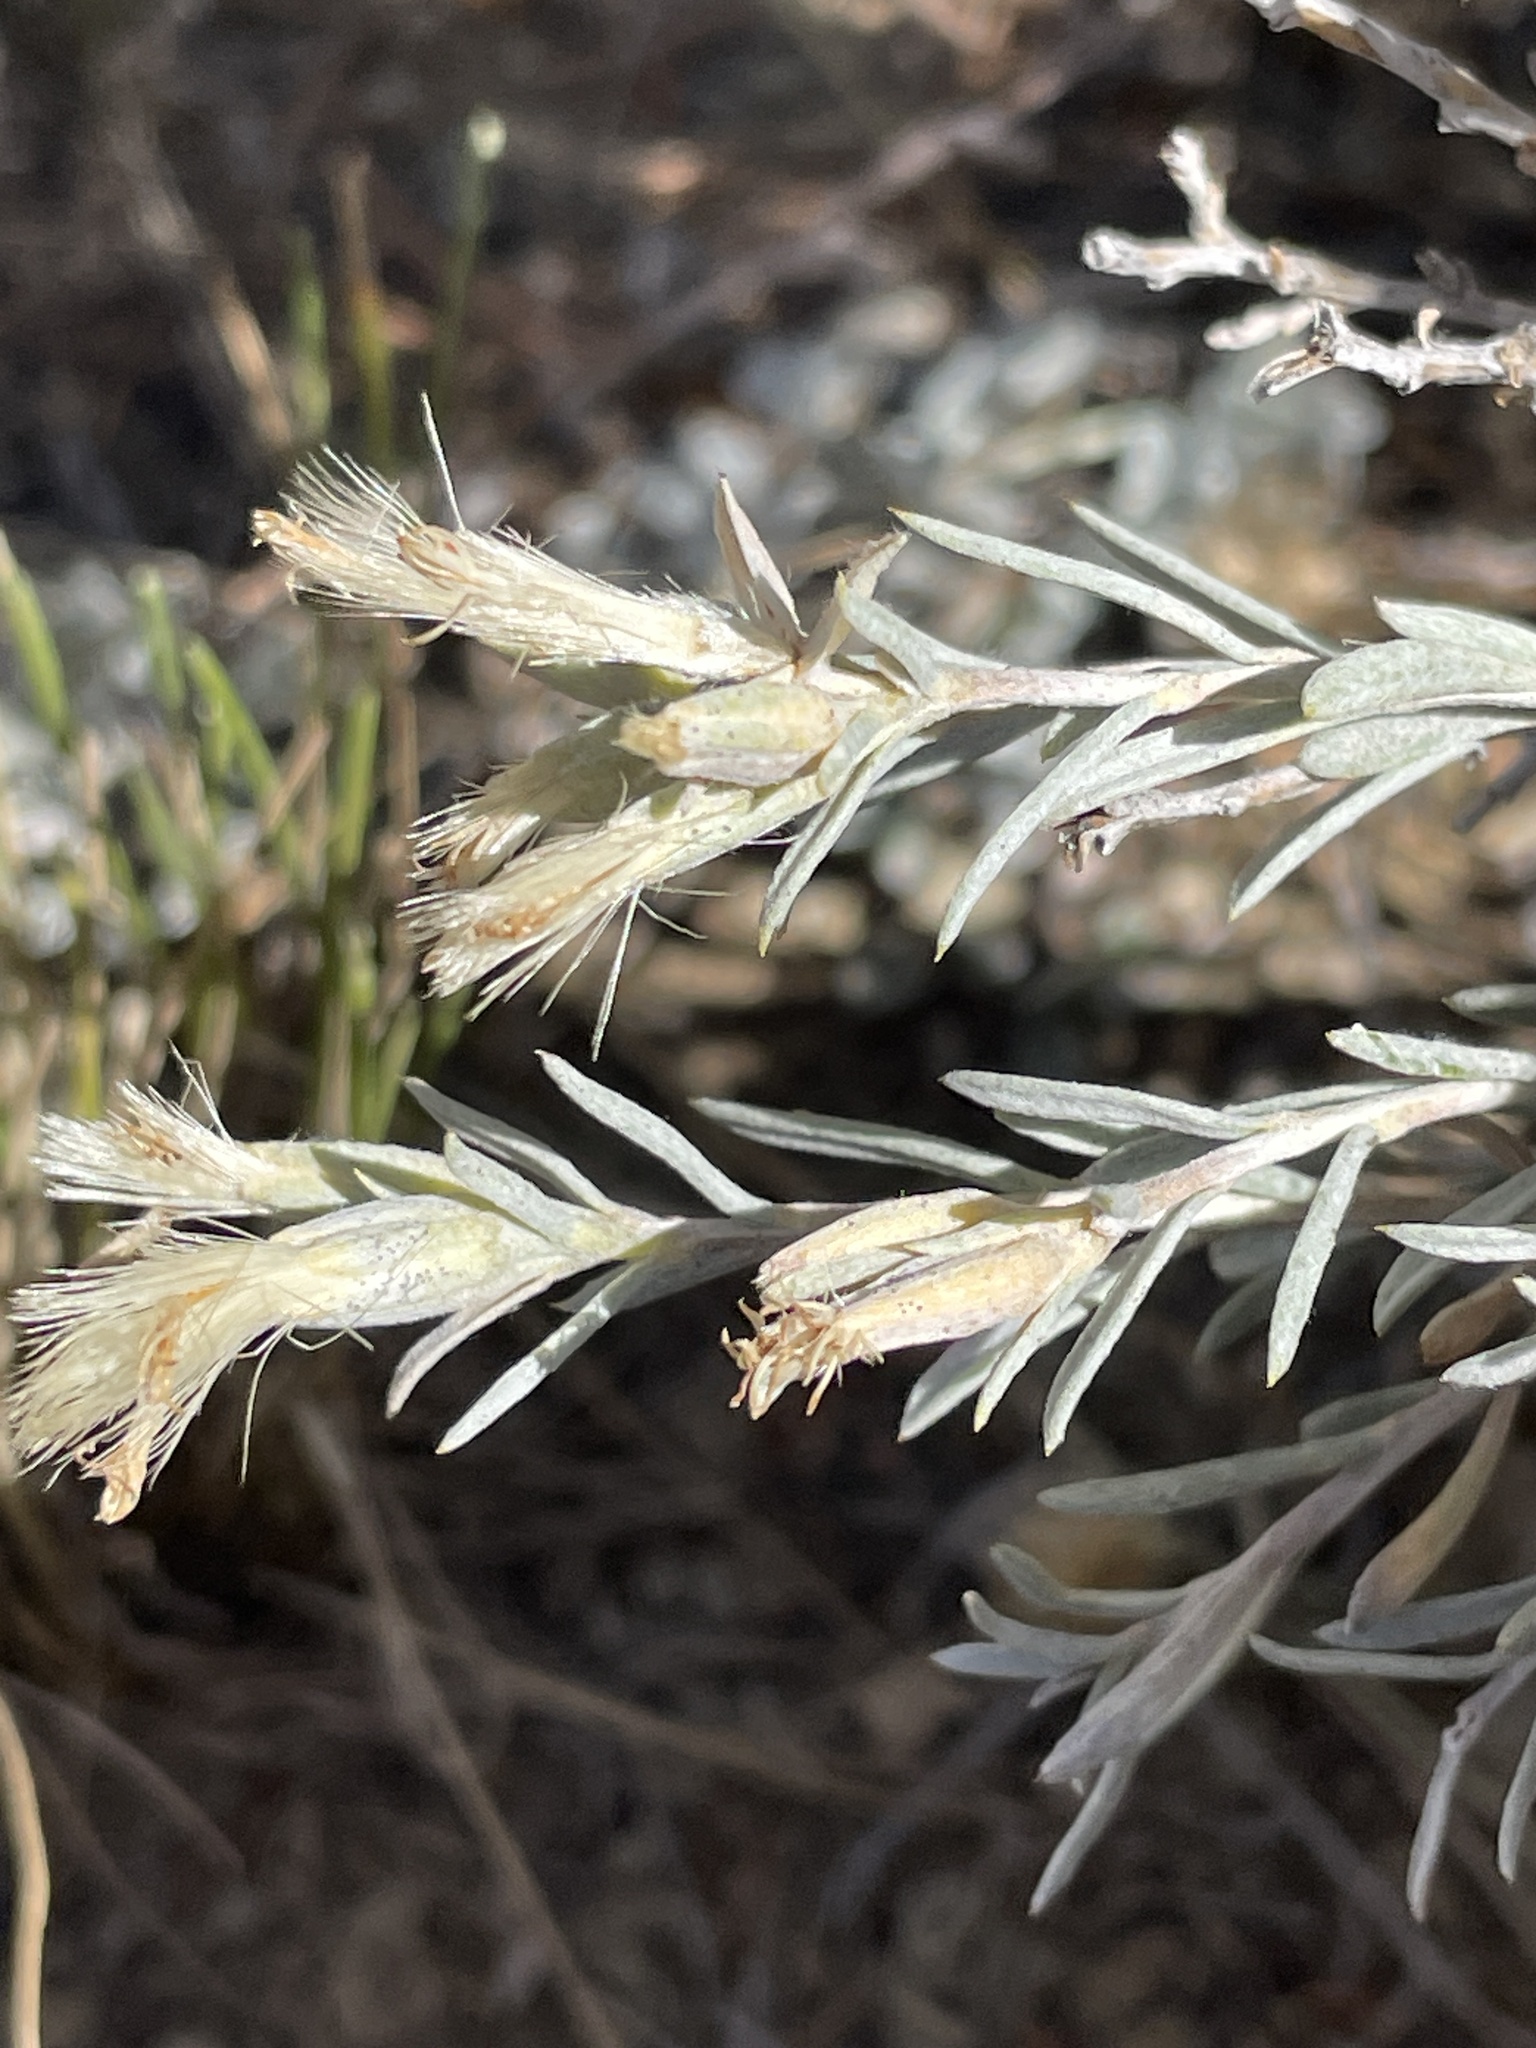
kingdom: Plantae
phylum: Tracheophyta
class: Magnoliopsida
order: Asterales
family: Asteraceae
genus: Tetradymia
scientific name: Tetradymia canescens
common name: Spineless horsebrush
